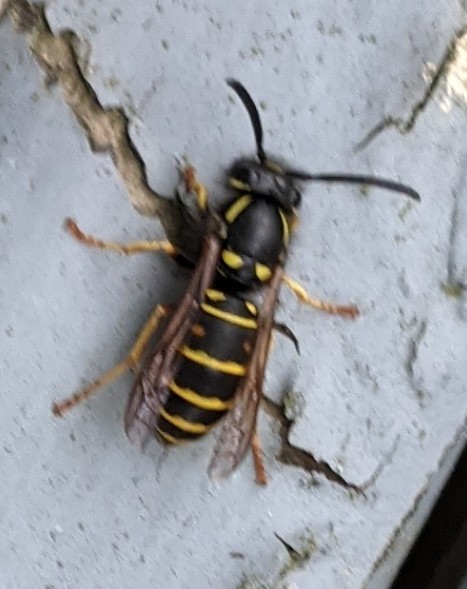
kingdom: Animalia
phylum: Arthropoda
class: Insecta
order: Hymenoptera
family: Vespidae
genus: Vespula
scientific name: Vespula acadica
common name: Forest yellowjacket
